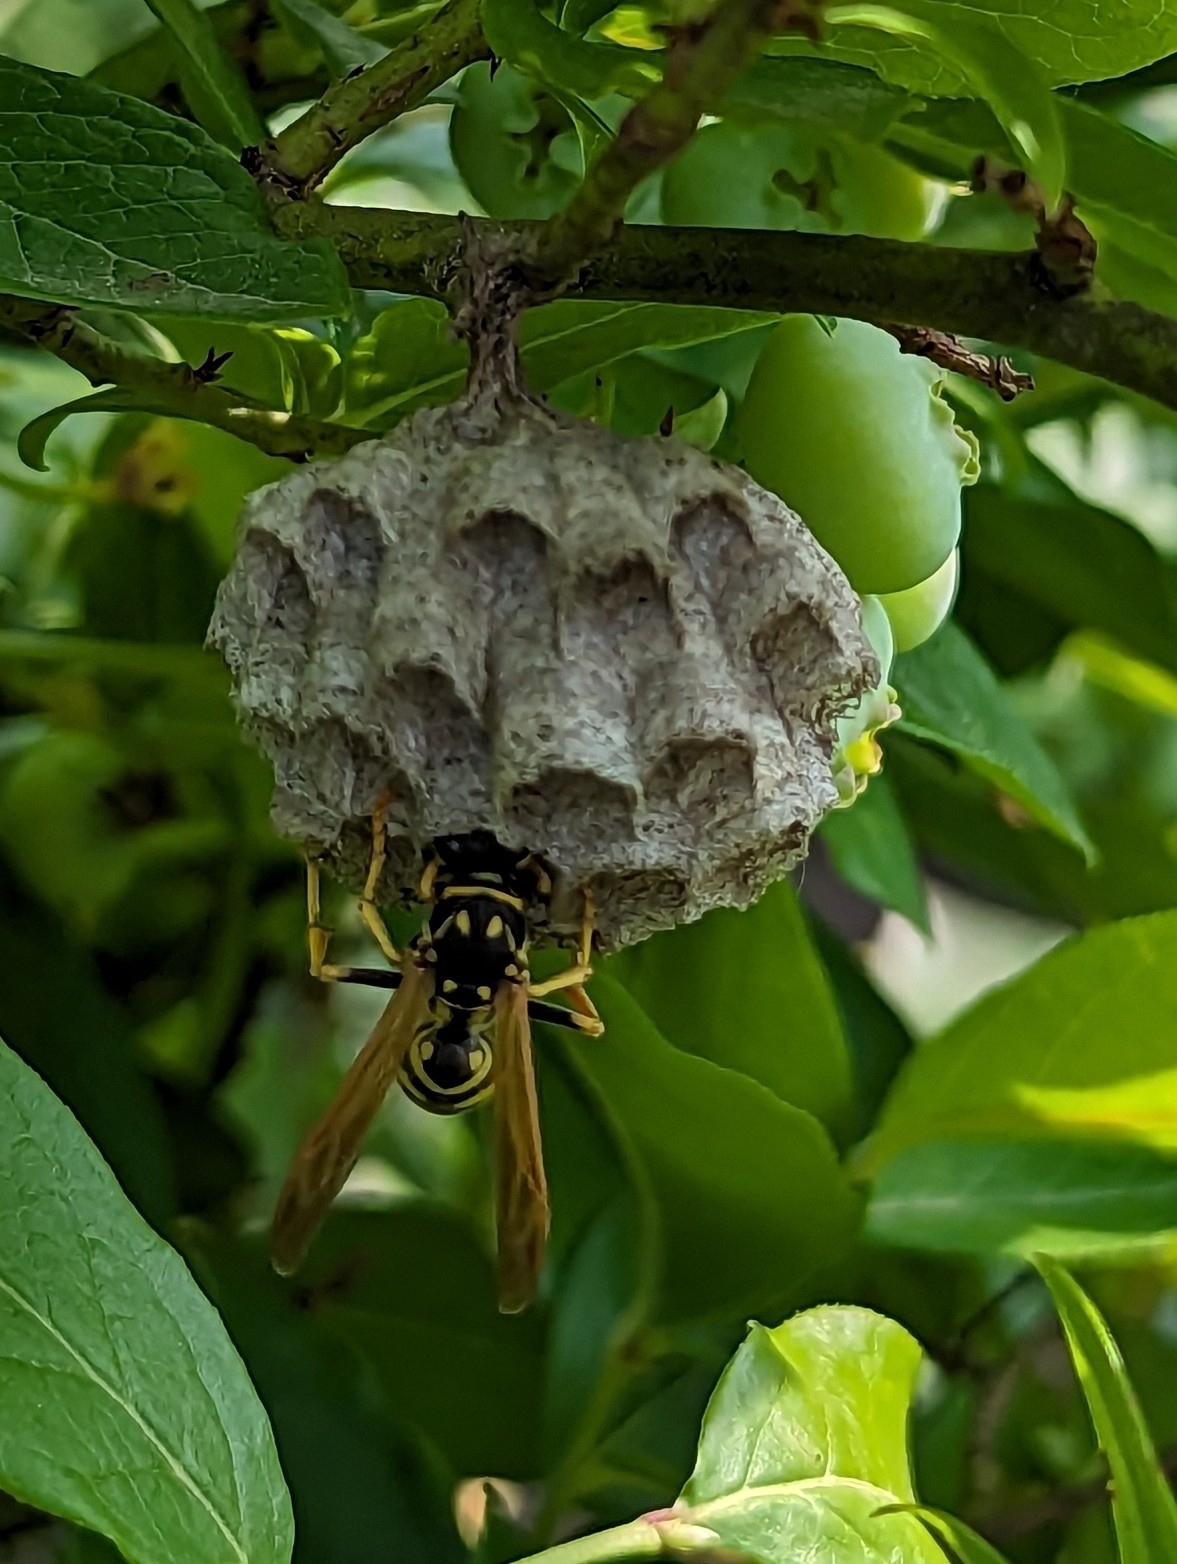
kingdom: Animalia
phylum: Arthropoda
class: Insecta
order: Hymenoptera
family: Eumenidae
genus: Polistes
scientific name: Polistes dominula
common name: Paper wasp
